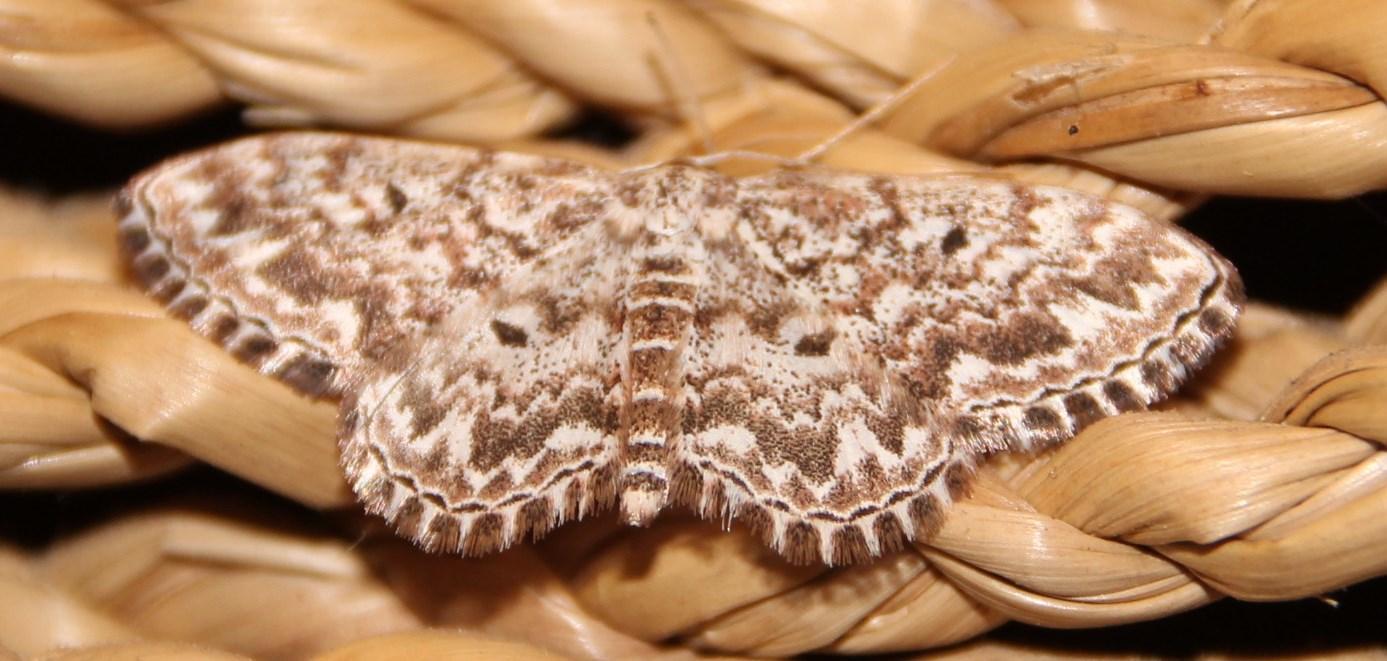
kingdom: Animalia
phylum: Arthropoda
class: Insecta
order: Lepidoptera
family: Geometridae
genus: Scopula
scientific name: Scopula inscriptata
